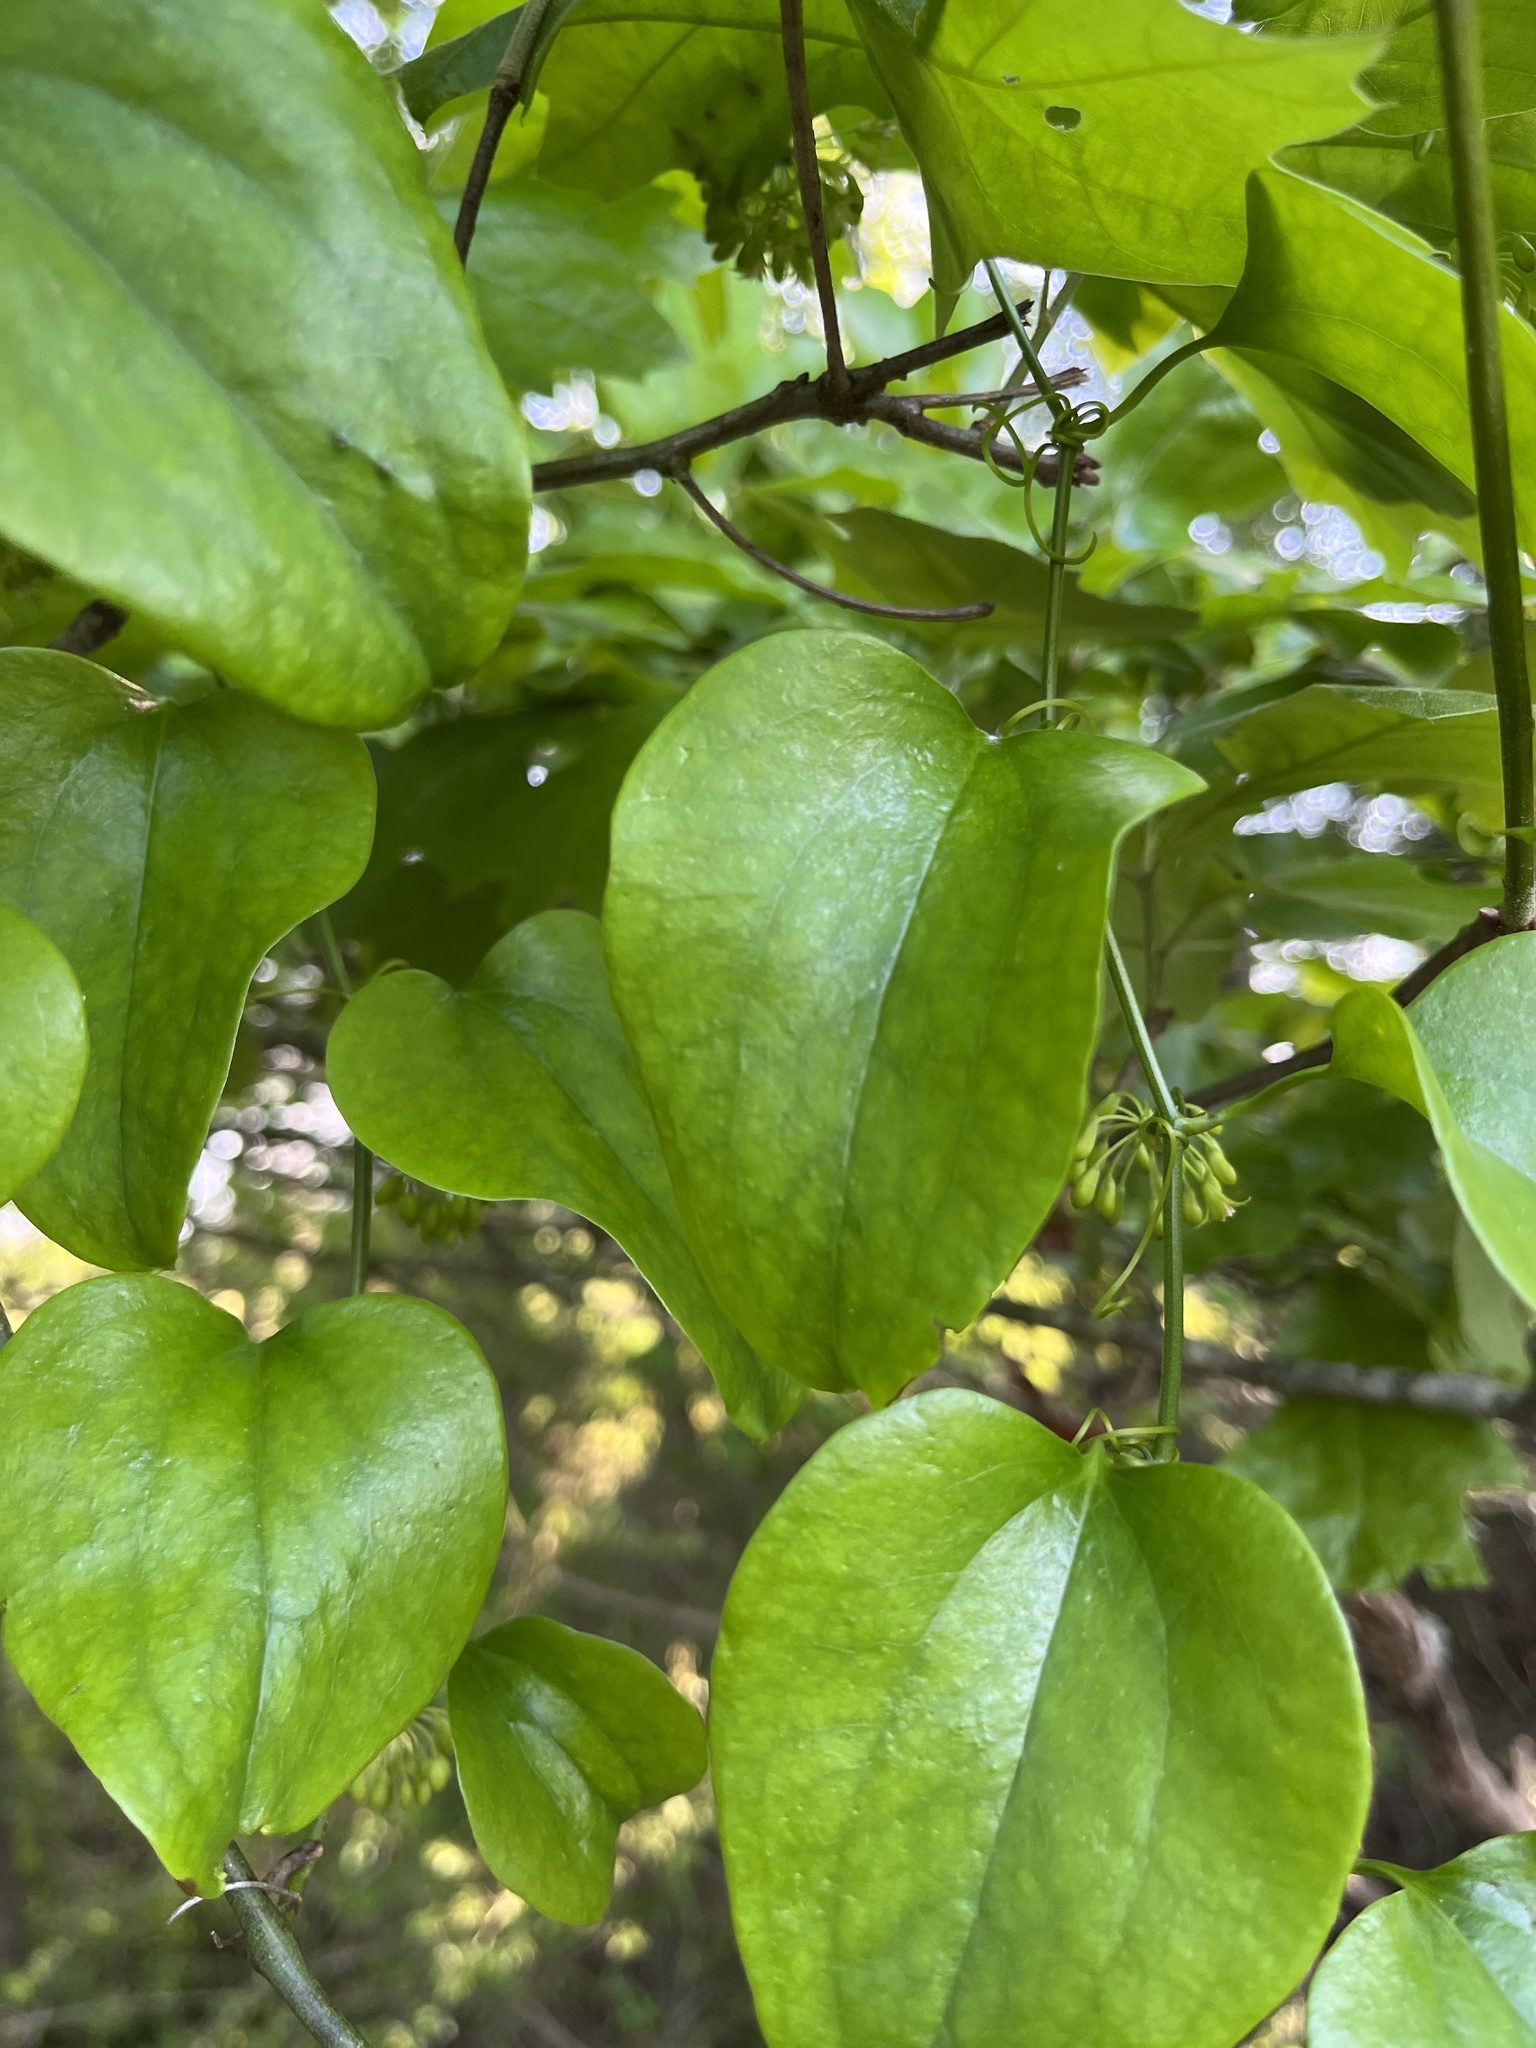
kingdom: Plantae
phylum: Tracheophyta
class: Liliopsida
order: Liliales
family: Smilacaceae
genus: Smilax
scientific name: Smilax bona-nox
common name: Catbrier
